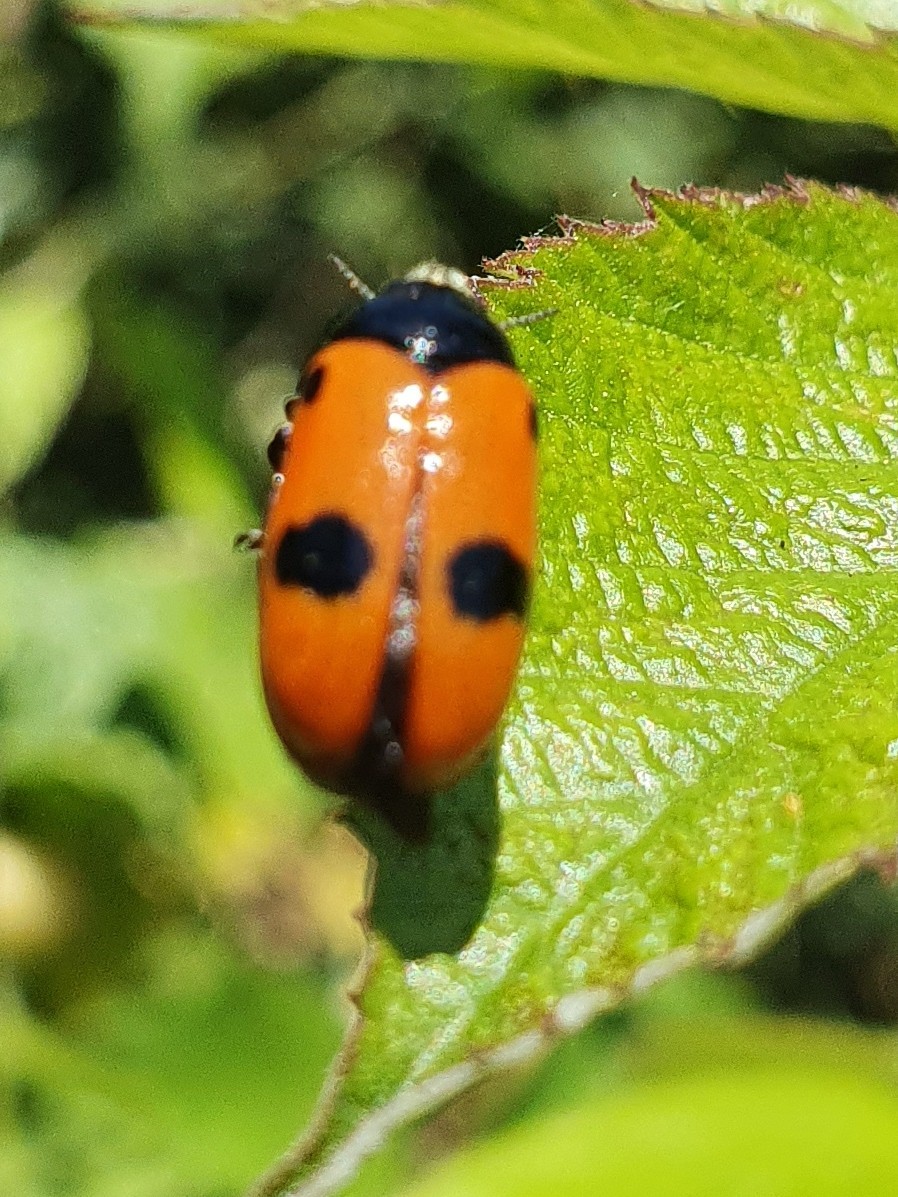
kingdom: Animalia
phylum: Arthropoda
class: Insecta
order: Coleoptera
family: Chrysomelidae
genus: Clytra
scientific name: Clytra laeviuscula
